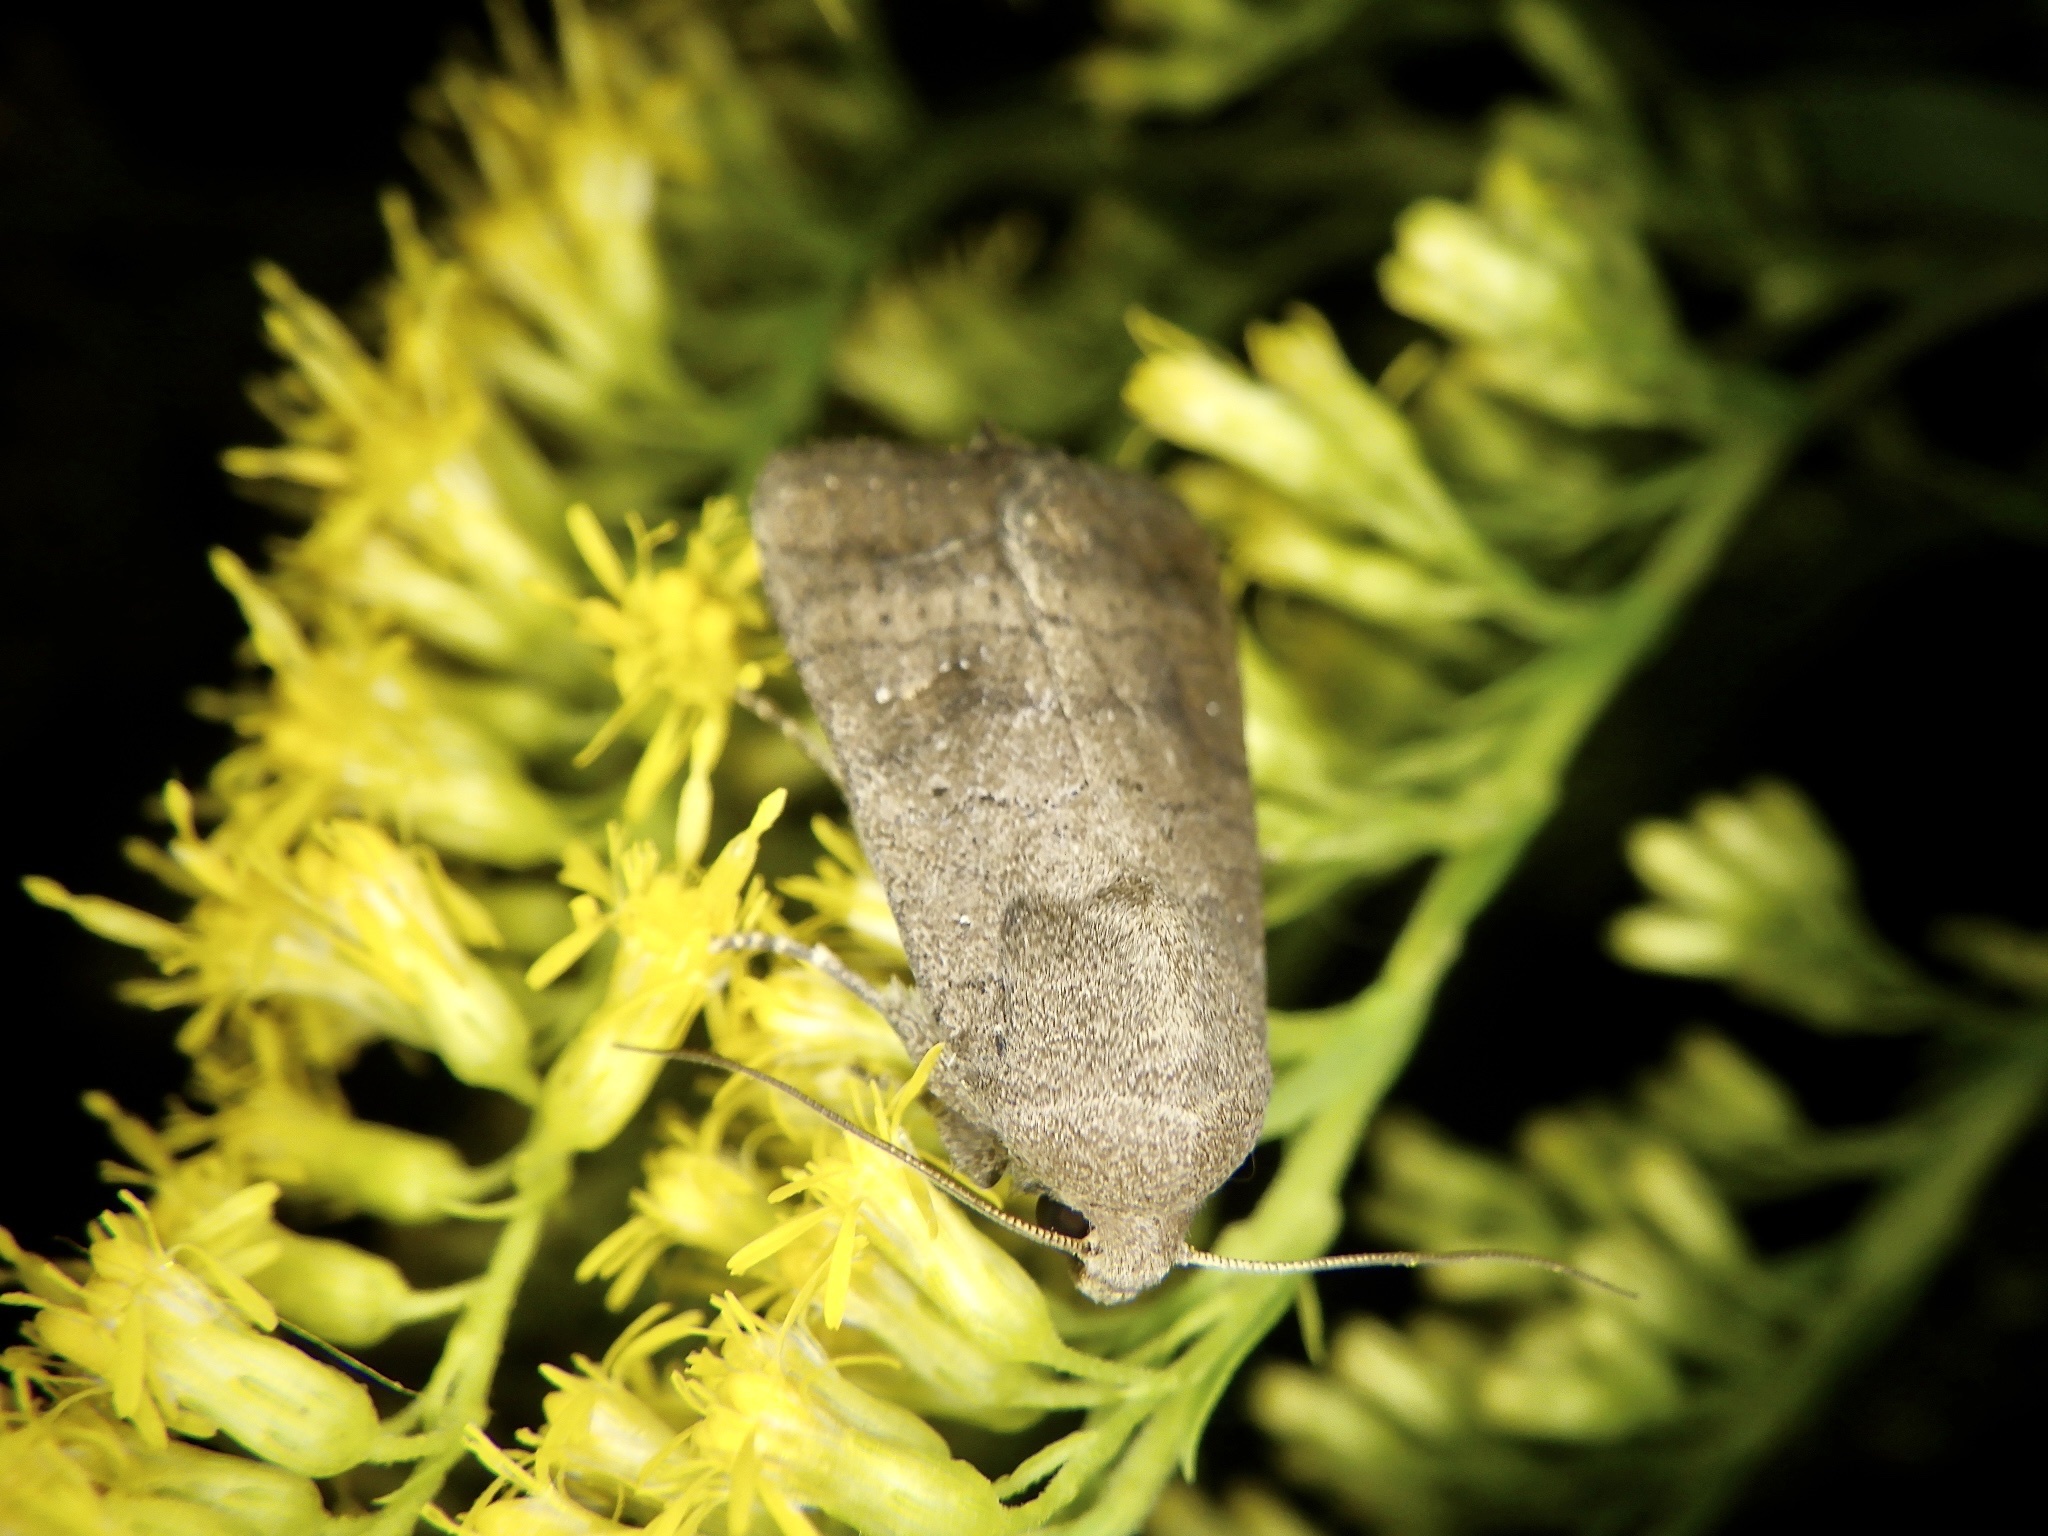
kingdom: Animalia
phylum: Arthropoda
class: Insecta
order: Lepidoptera
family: Noctuidae
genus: Athetis
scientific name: Athetis stellata
